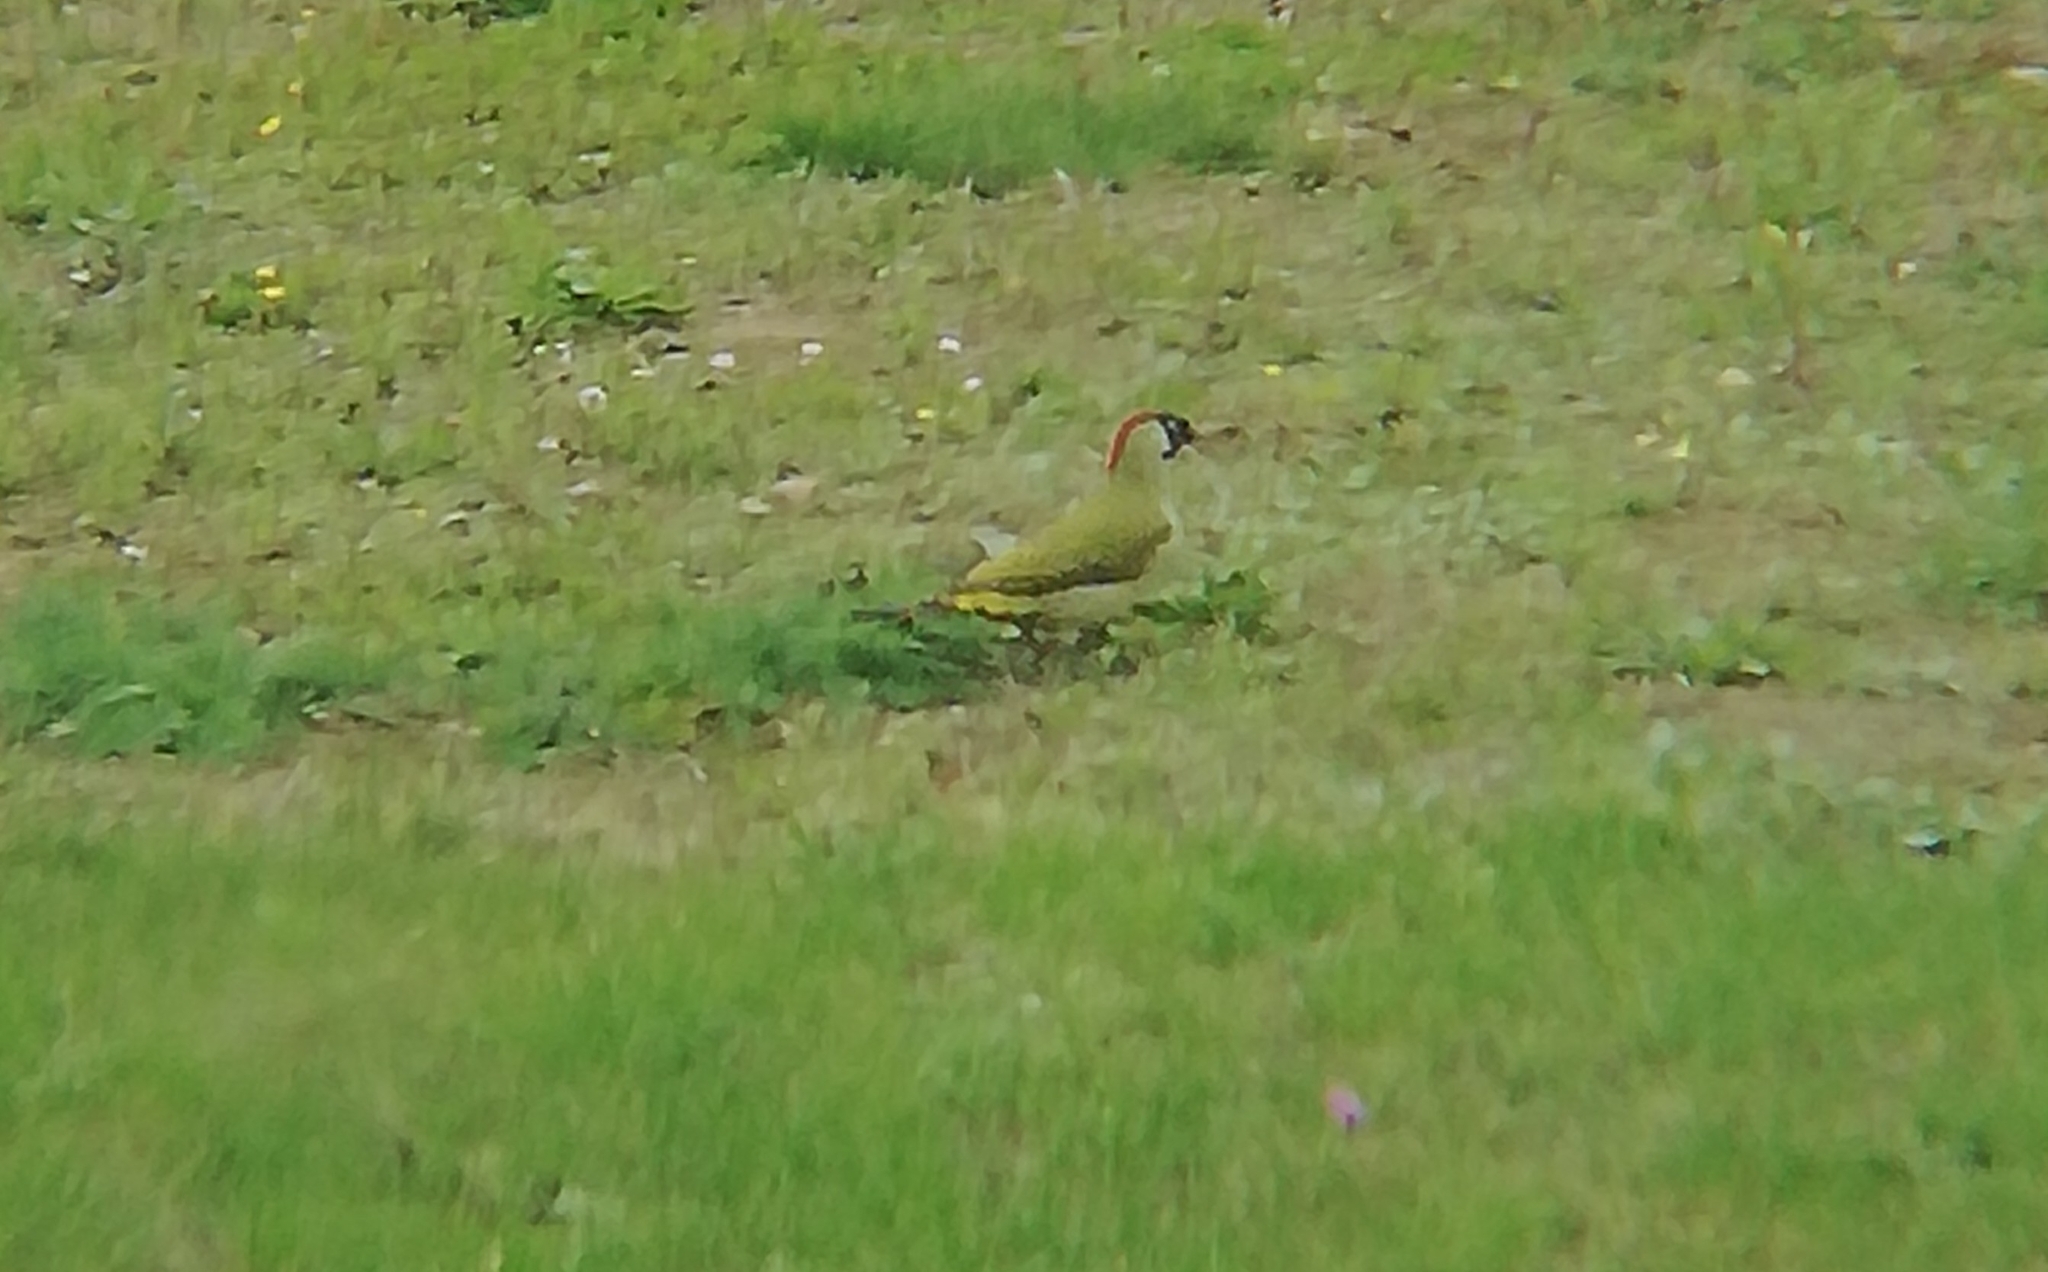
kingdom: Animalia
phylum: Chordata
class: Aves
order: Piciformes
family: Picidae
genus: Picus
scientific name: Picus viridis
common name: European green woodpecker
